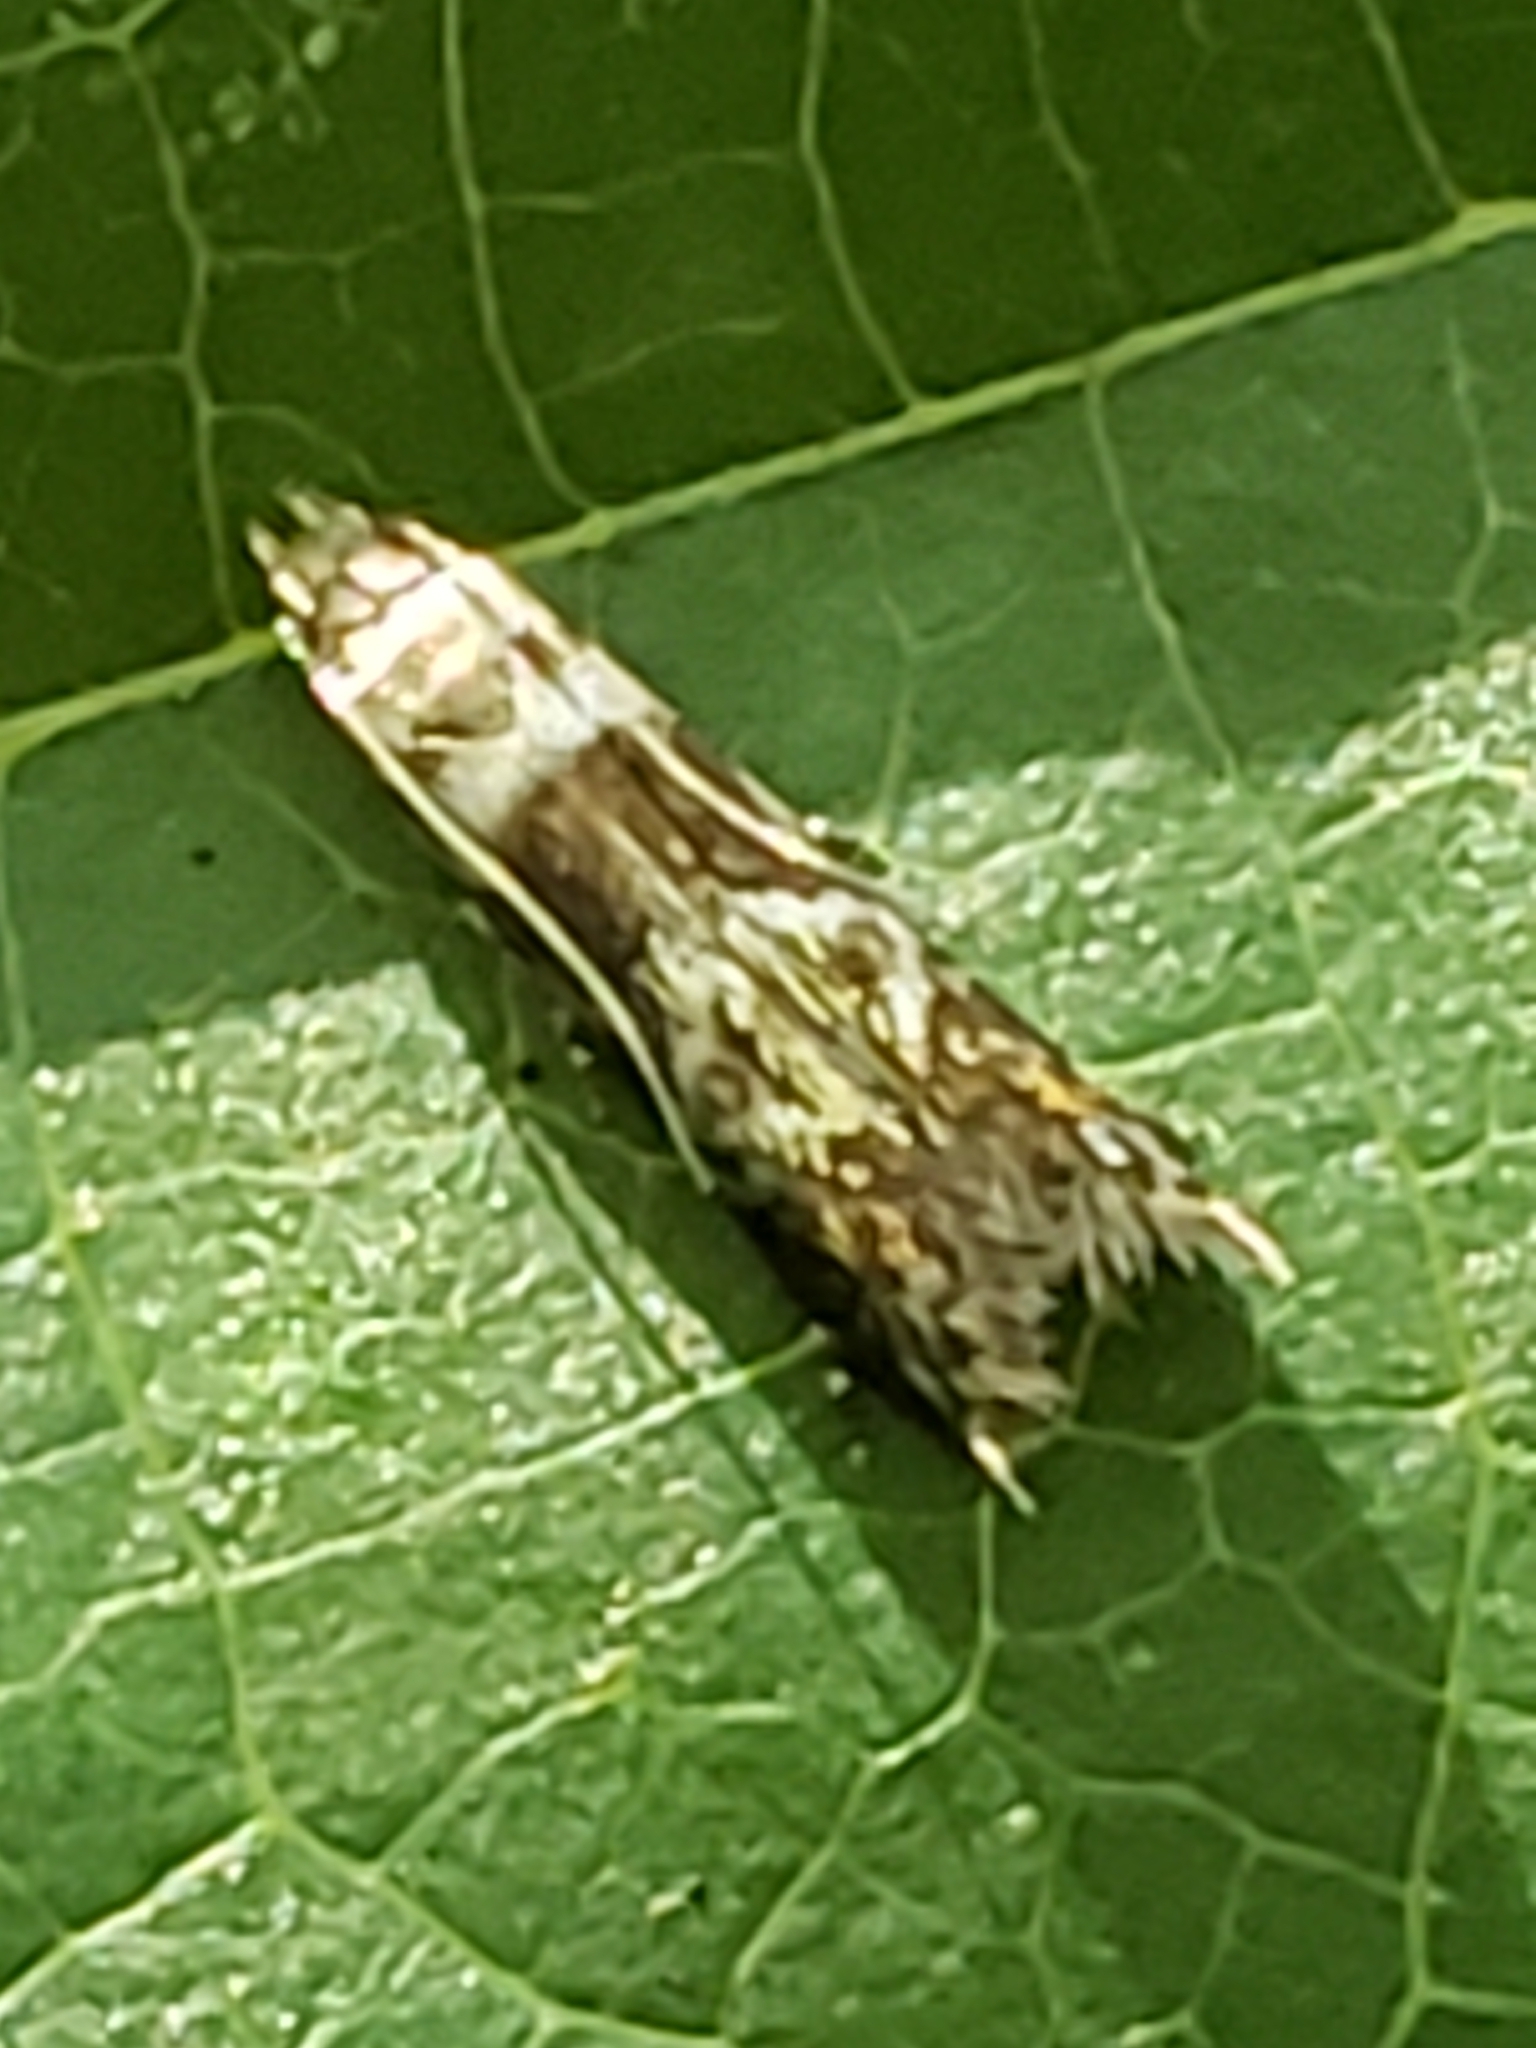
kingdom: Animalia
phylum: Arthropoda
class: Insecta
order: Lepidoptera
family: Gelechiidae
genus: Holophysis
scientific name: Holophysis emblemella
